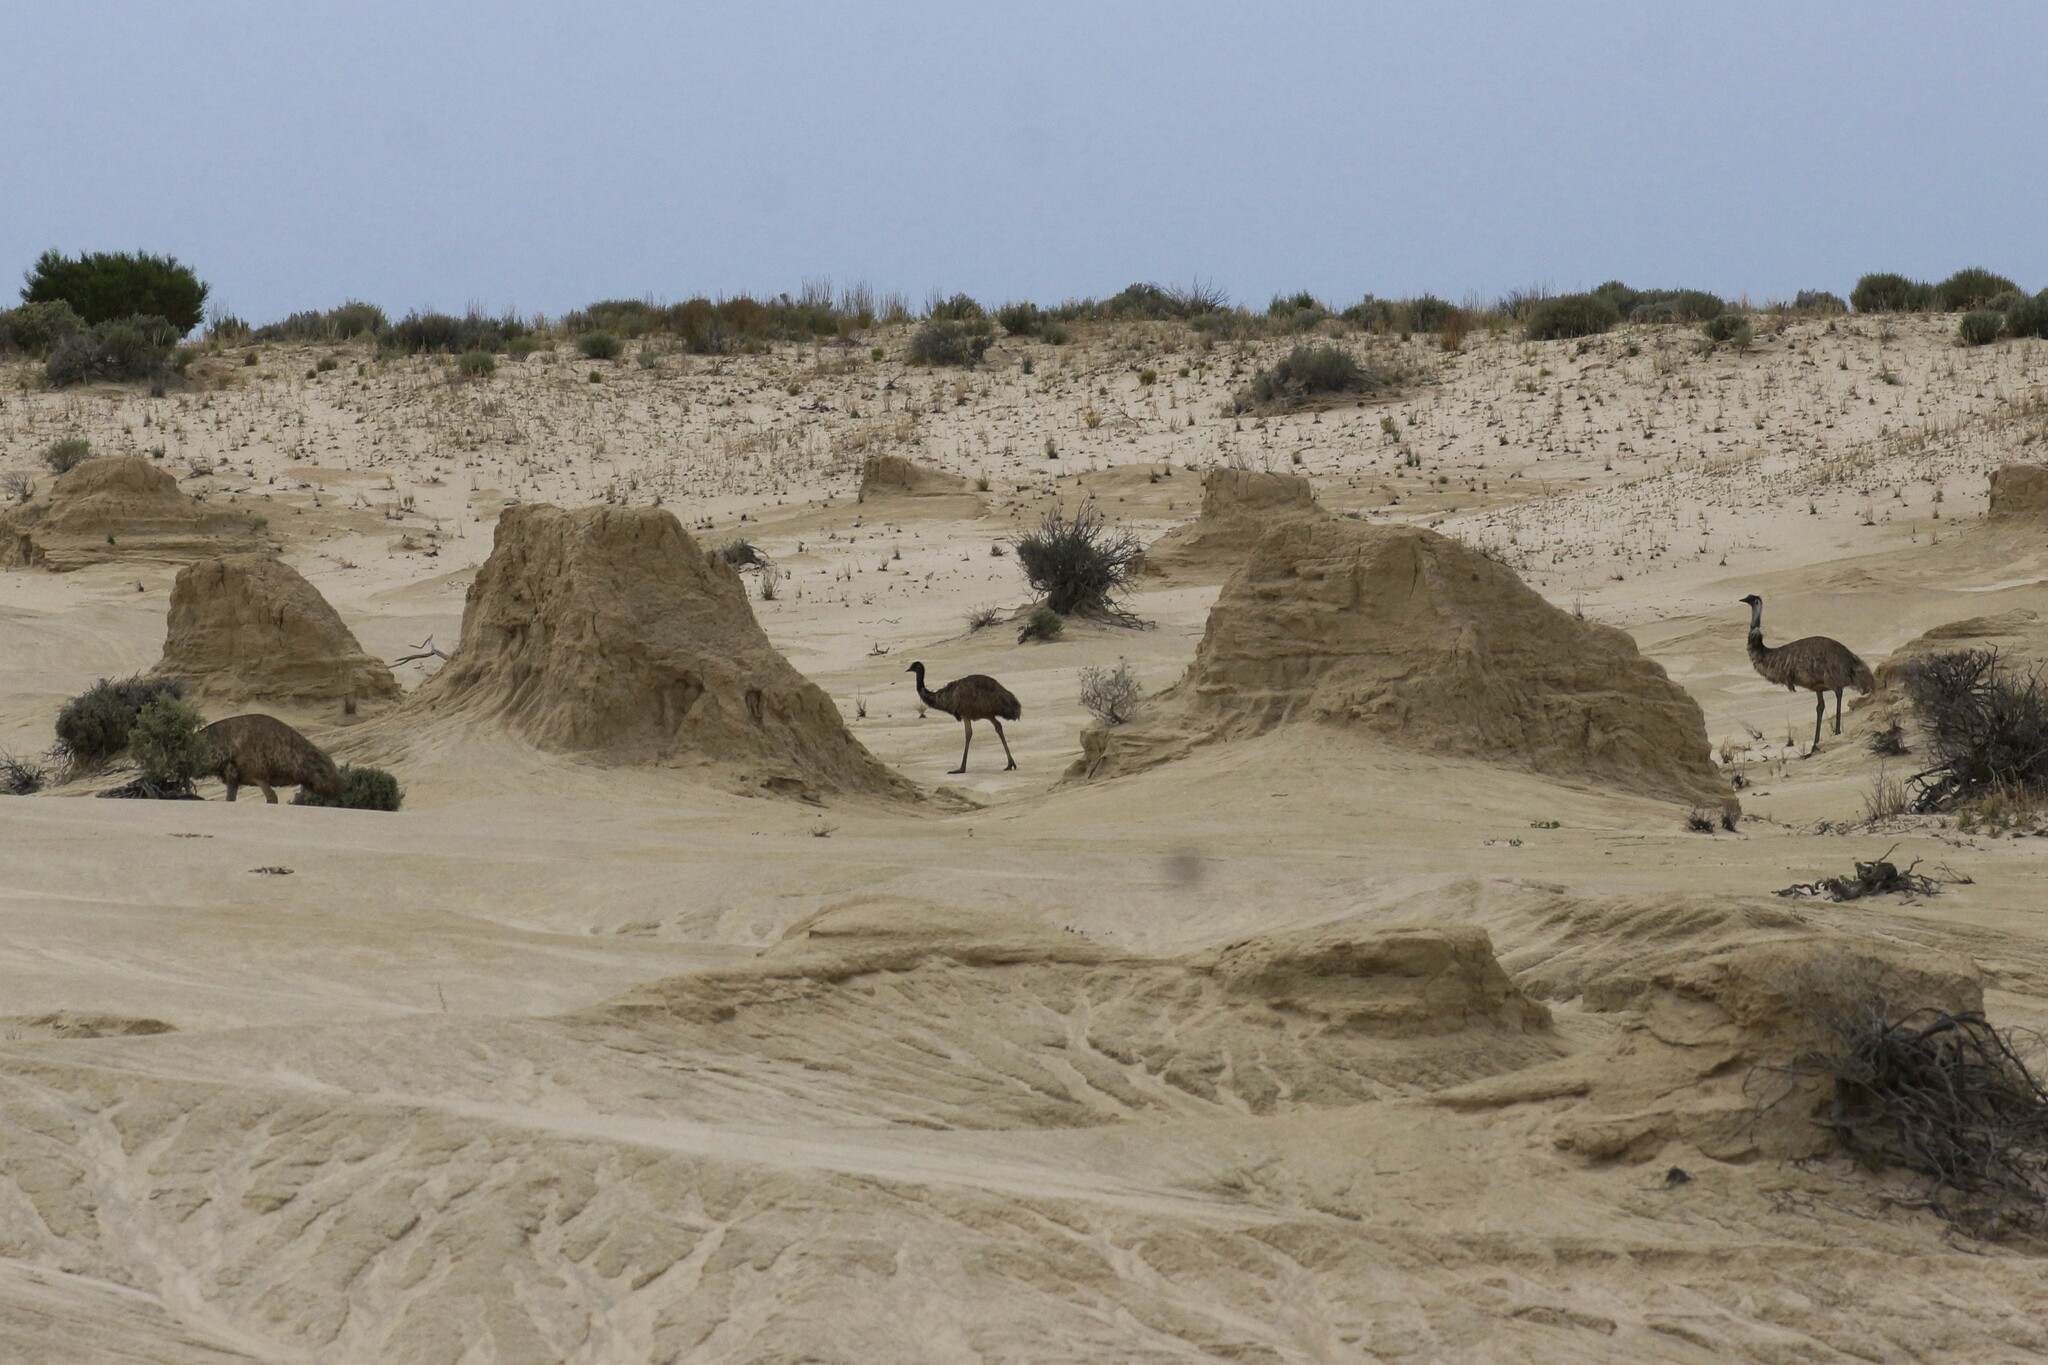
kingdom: Animalia
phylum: Chordata
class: Aves
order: Casuariiformes
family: Dromaiidae
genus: Dromaius
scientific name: Dromaius novaehollandiae
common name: Emu
